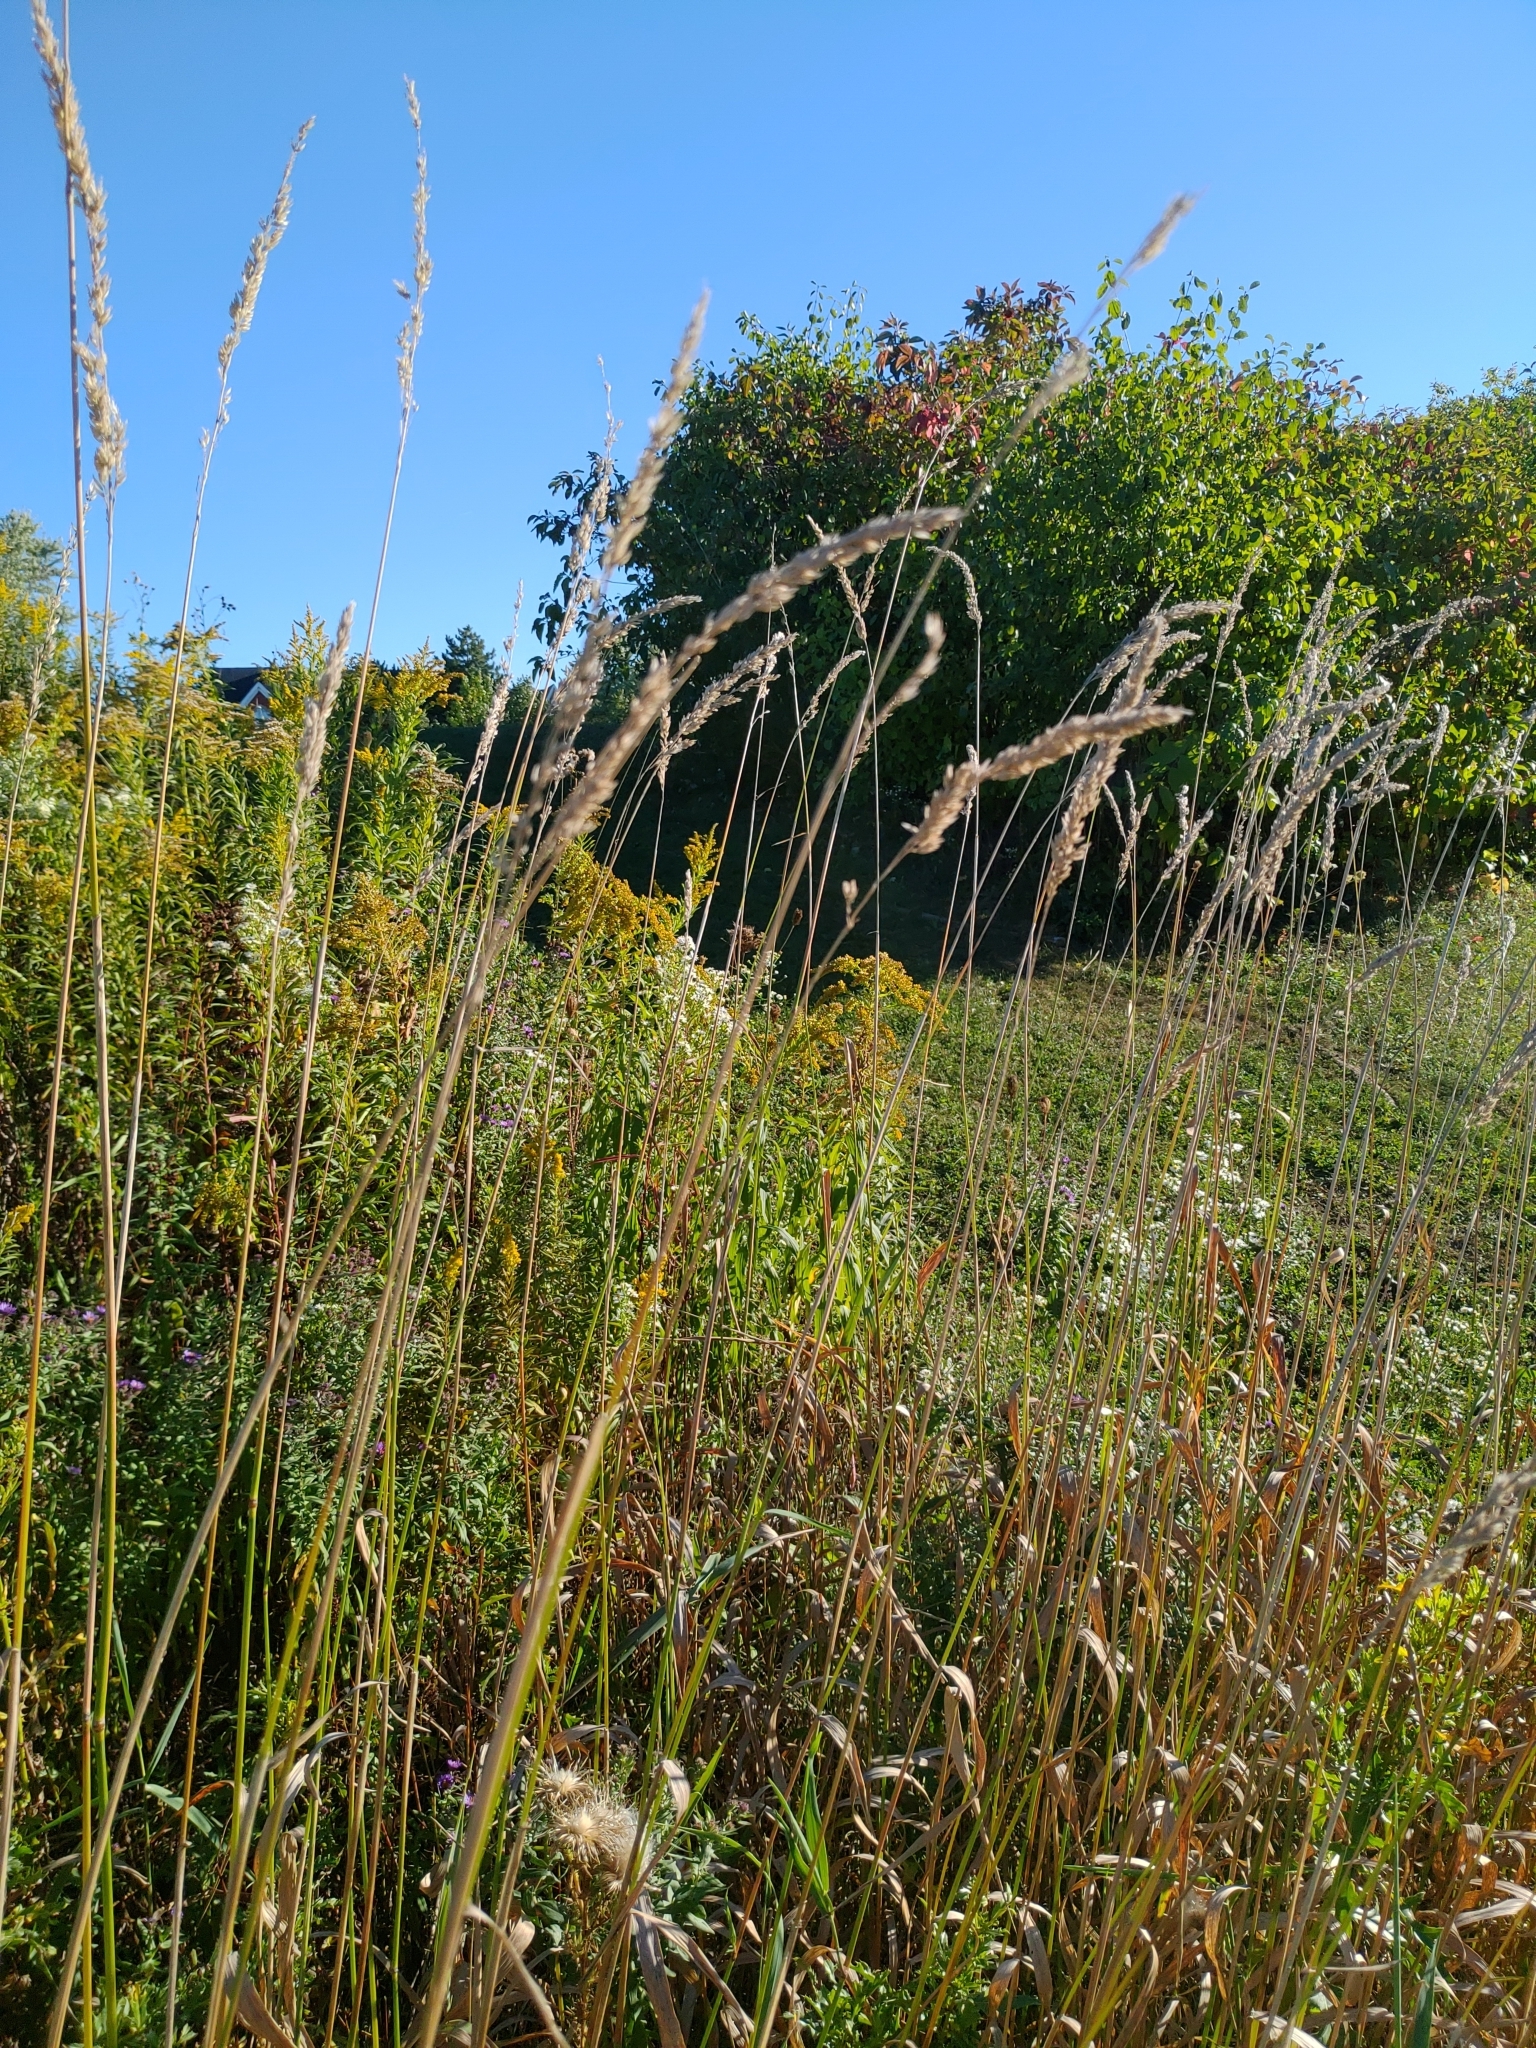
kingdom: Plantae
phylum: Tracheophyta
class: Liliopsida
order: Poales
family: Poaceae
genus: Phalaris
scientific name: Phalaris arundinacea
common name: Reed canary-grass
